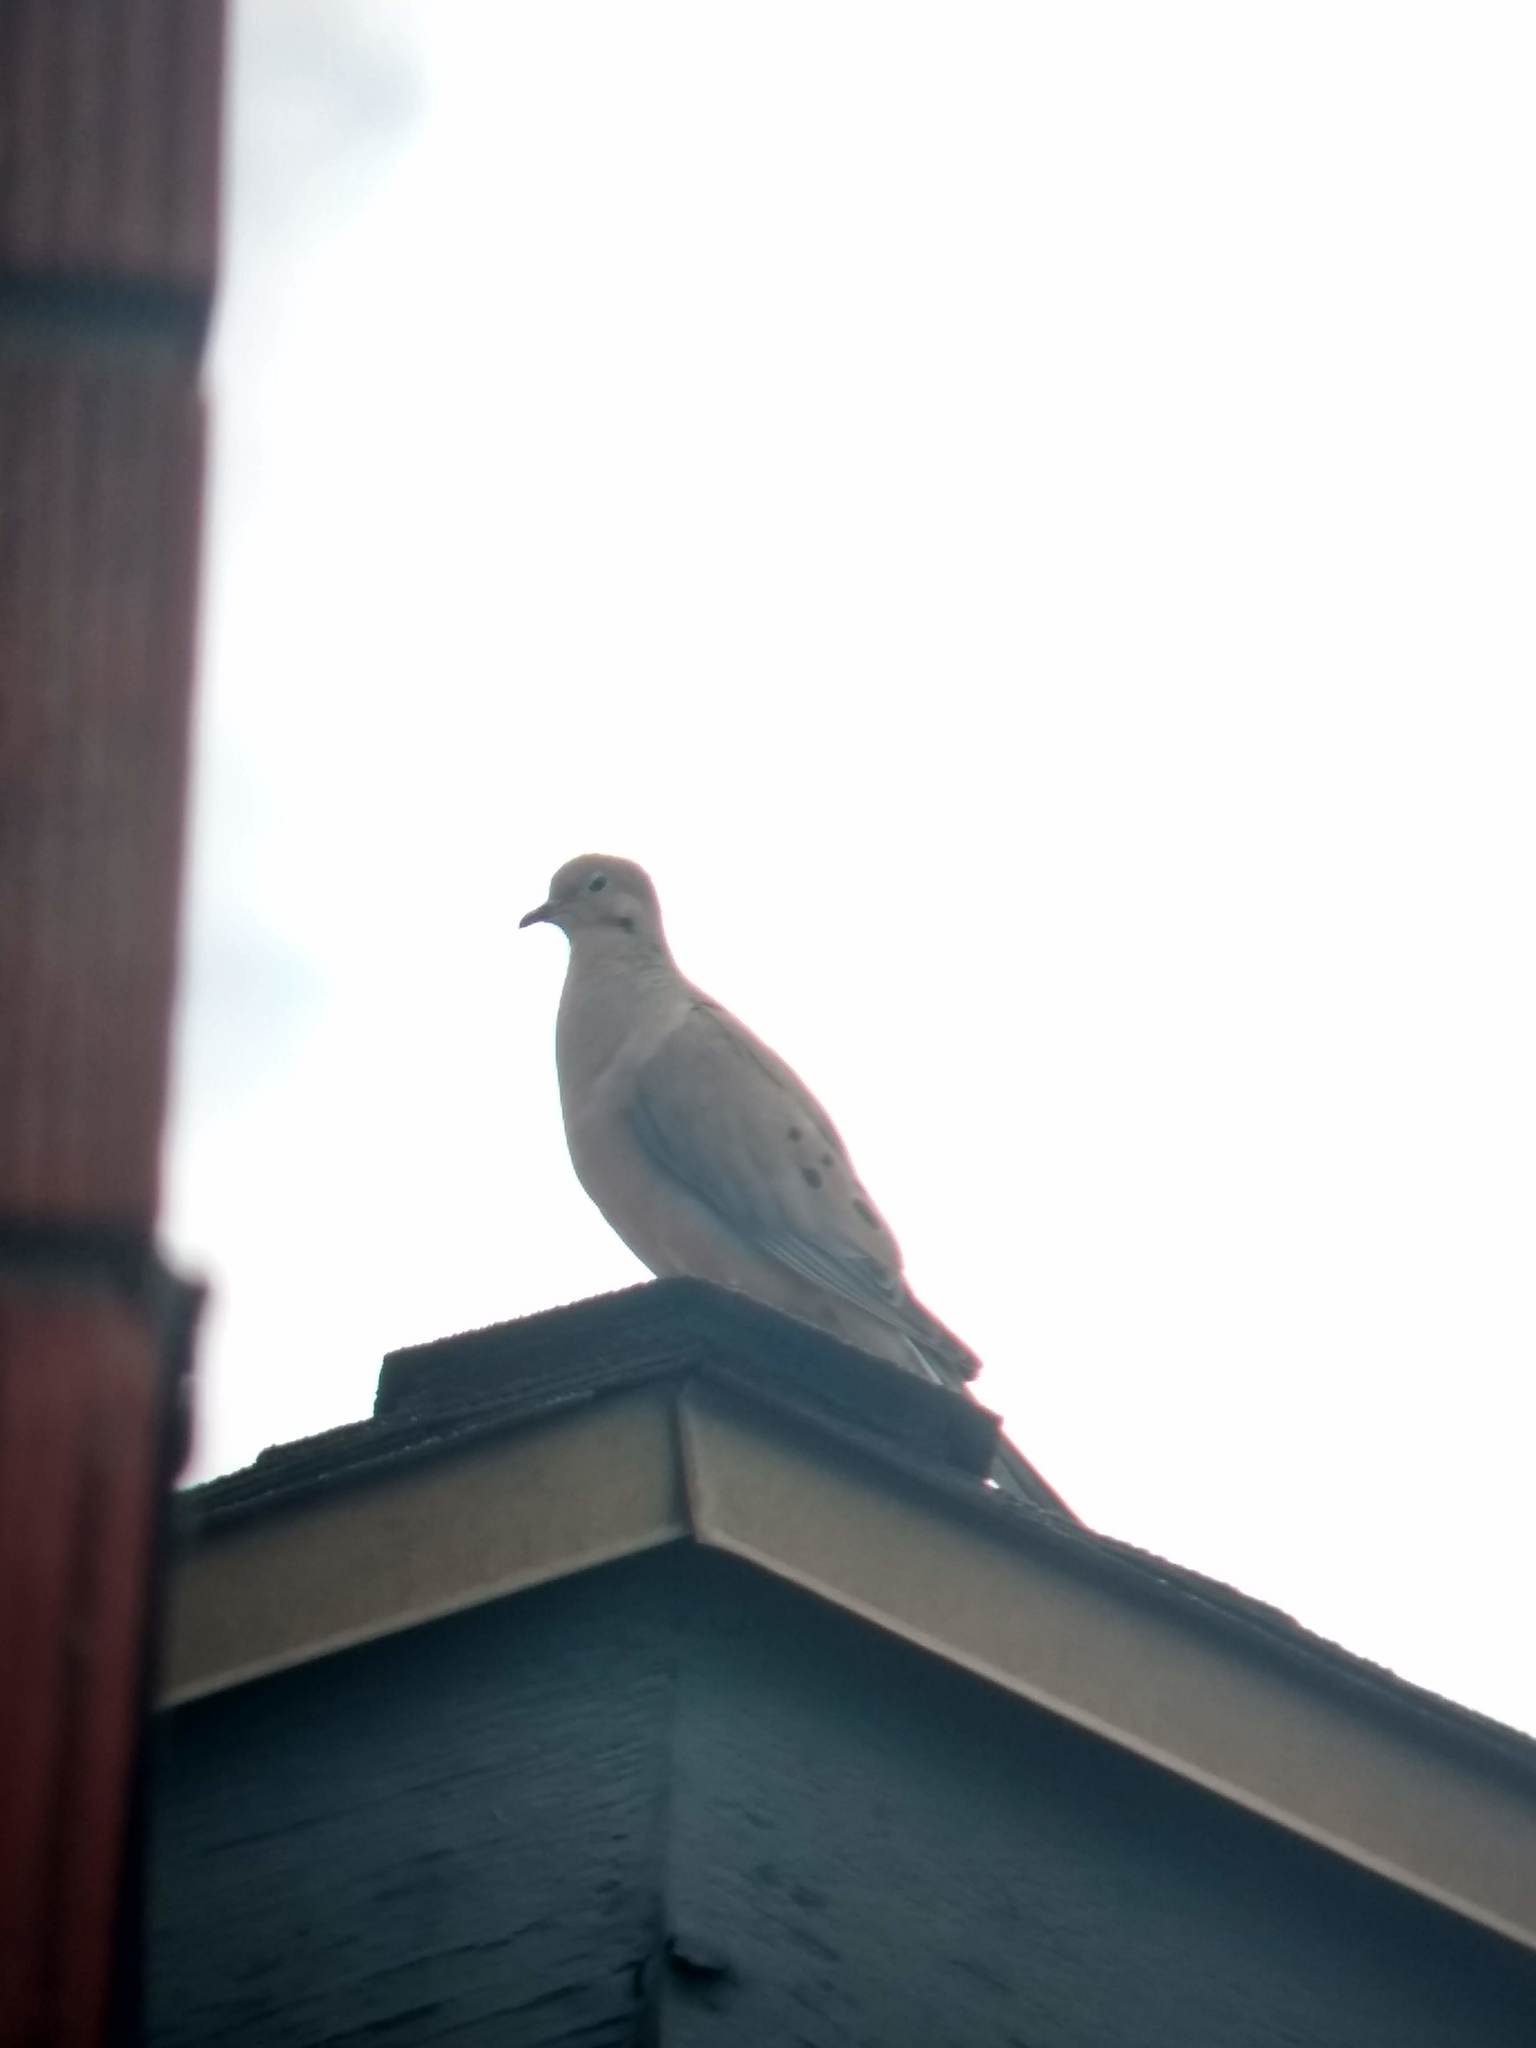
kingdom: Animalia
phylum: Chordata
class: Aves
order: Columbiformes
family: Columbidae
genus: Zenaida
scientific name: Zenaida macroura
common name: Mourning dove
